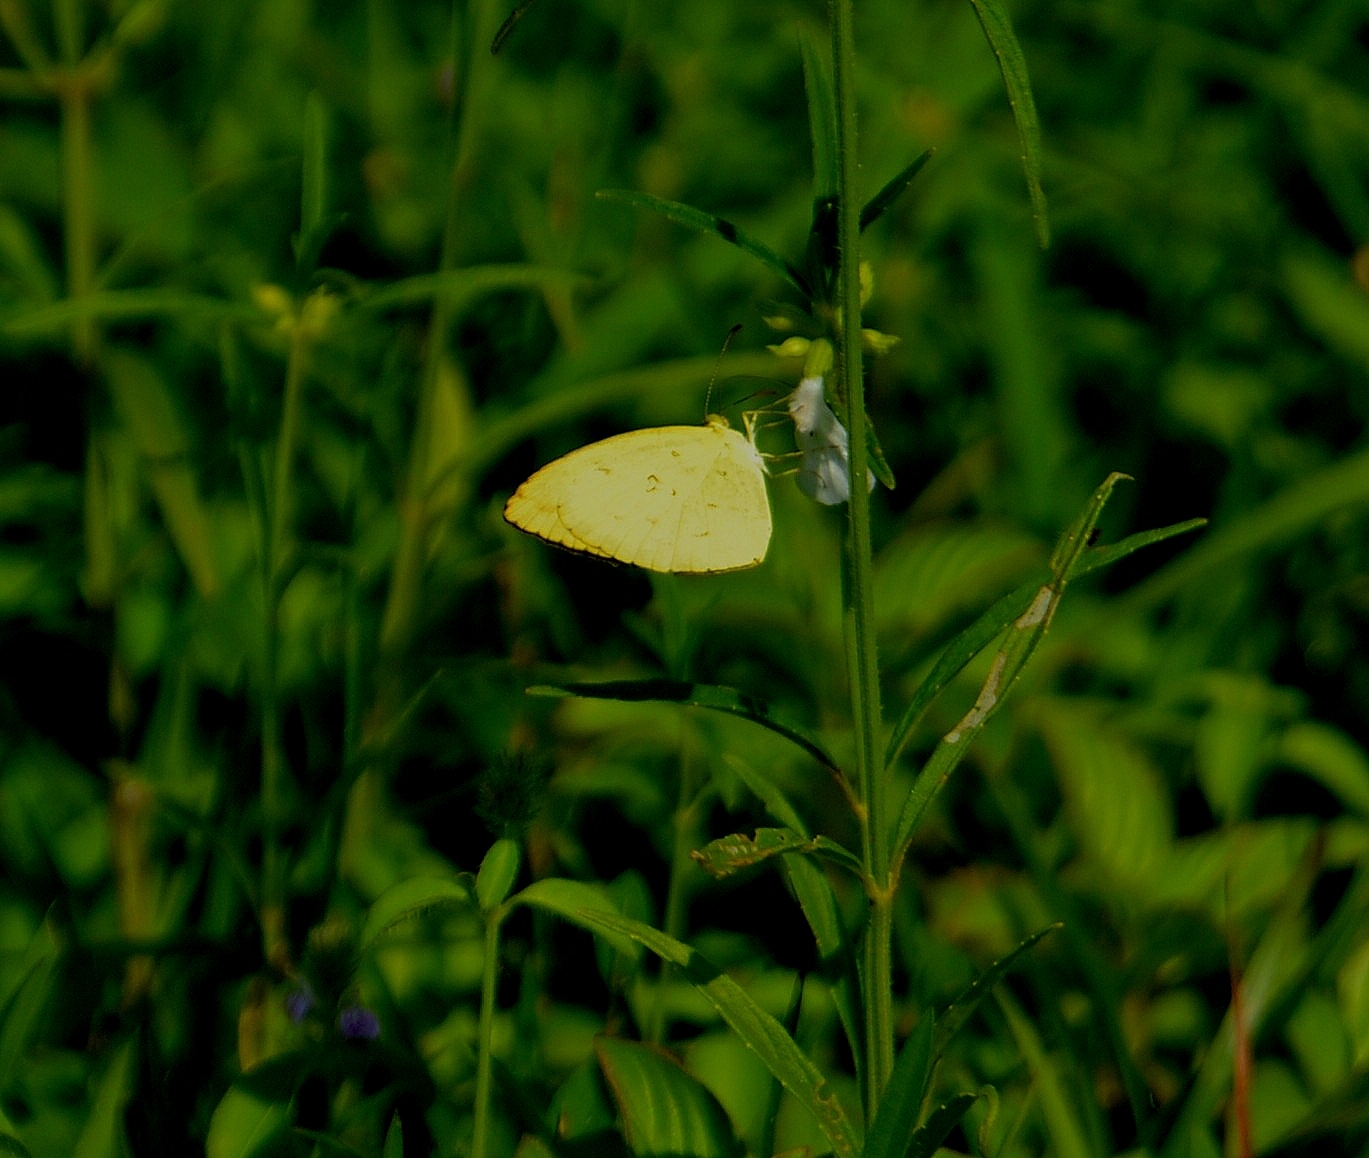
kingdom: Animalia
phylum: Arthropoda
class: Insecta
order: Lepidoptera
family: Pieridae
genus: Eurema
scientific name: Eurema hecabe
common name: Pale grass yellow
